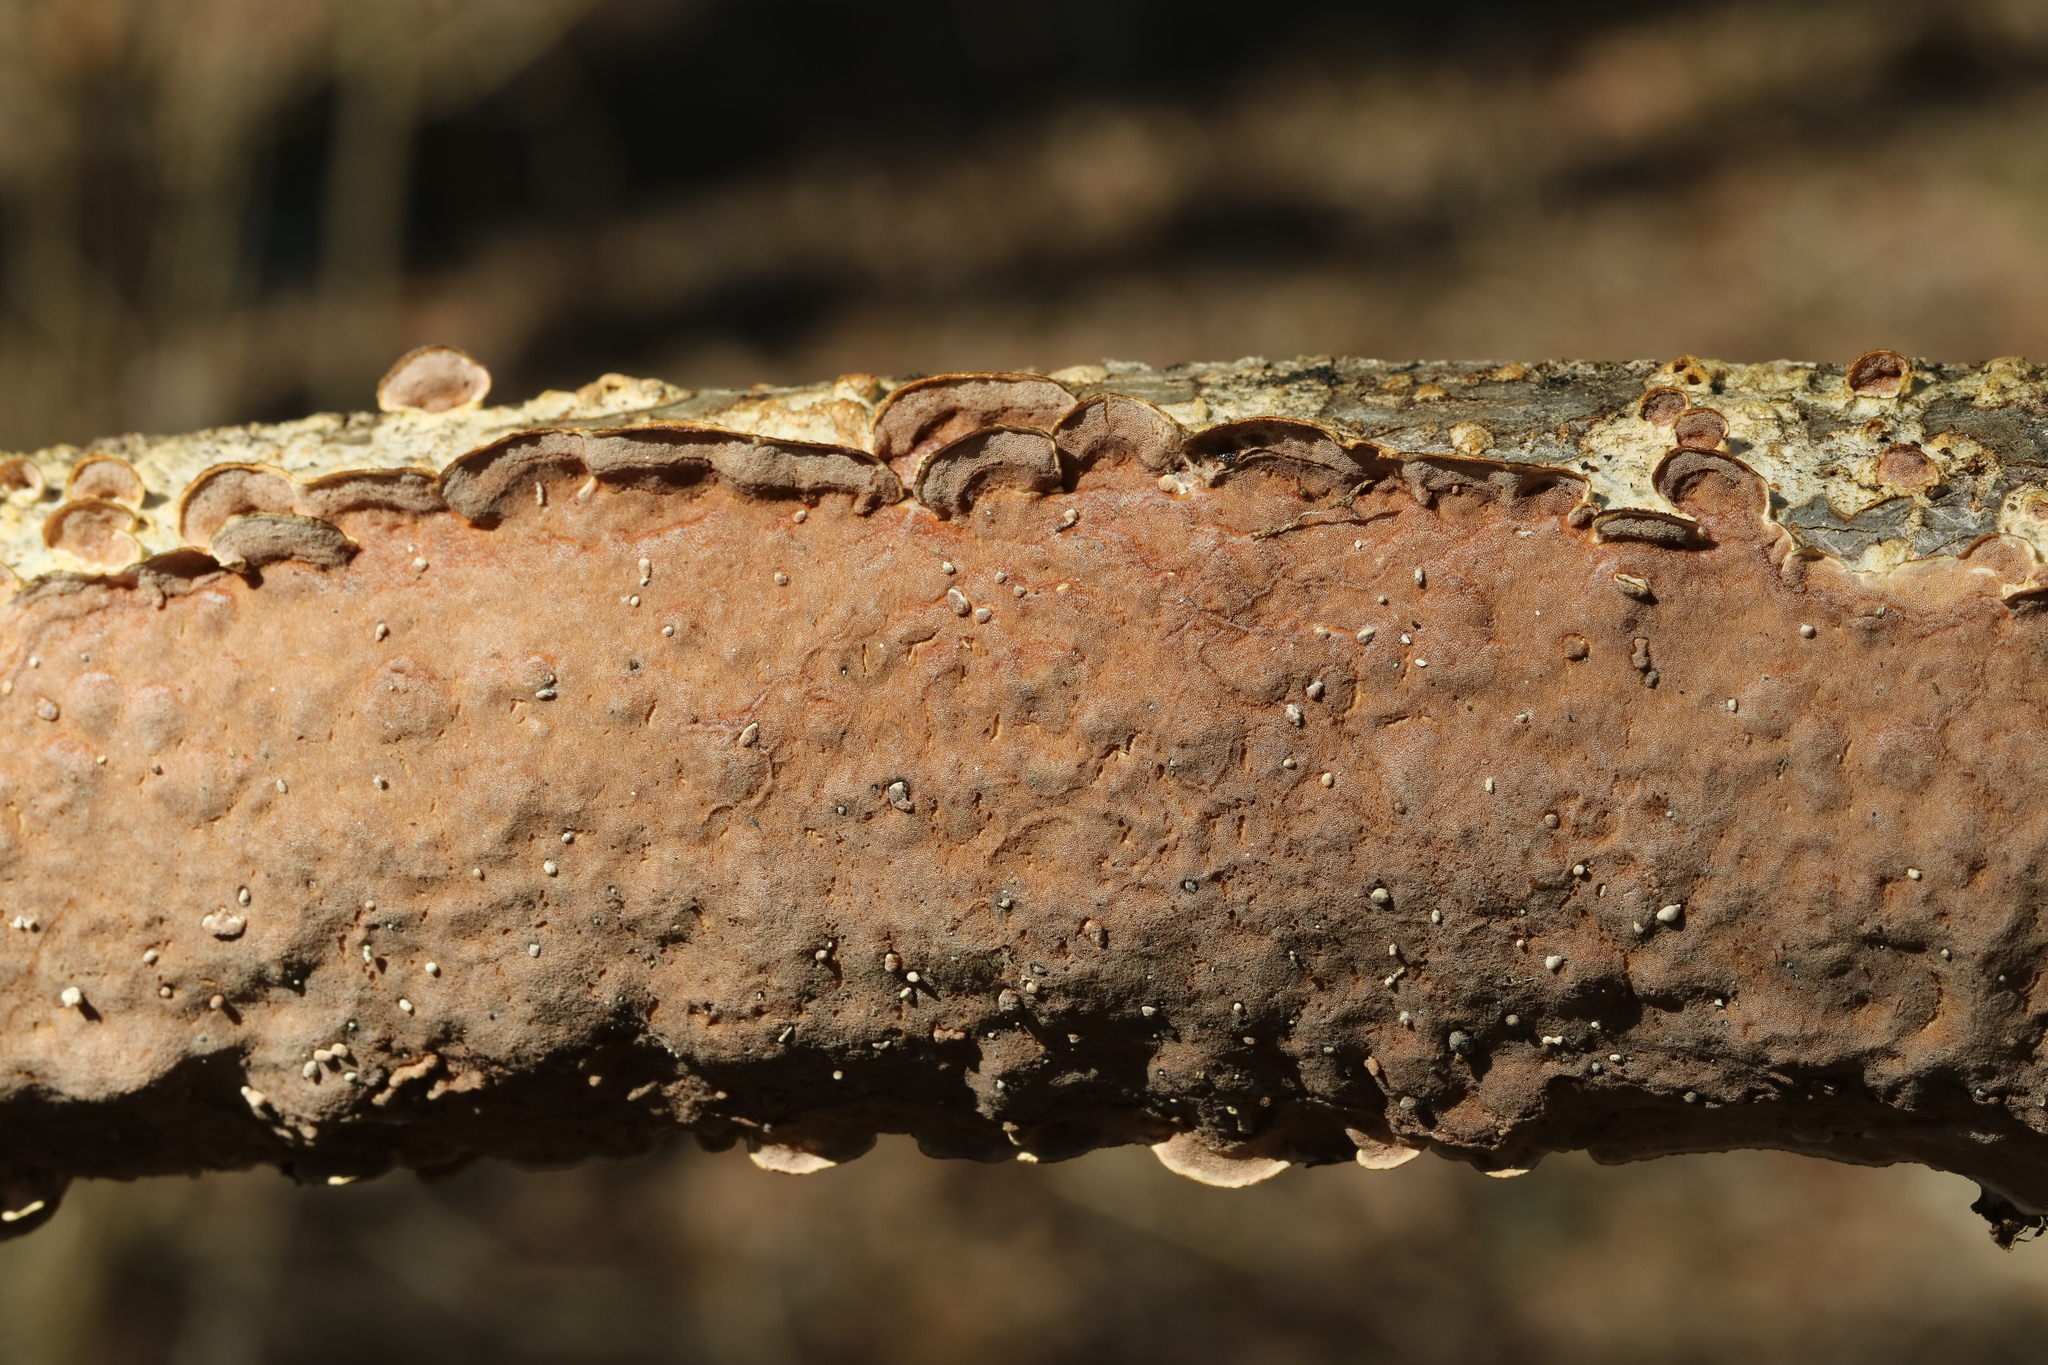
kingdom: Fungi
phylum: Basidiomycota
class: Agaricomycetes
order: Polyporales
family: Irpicaceae
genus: Vitreoporus
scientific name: Vitreoporus dichrous
